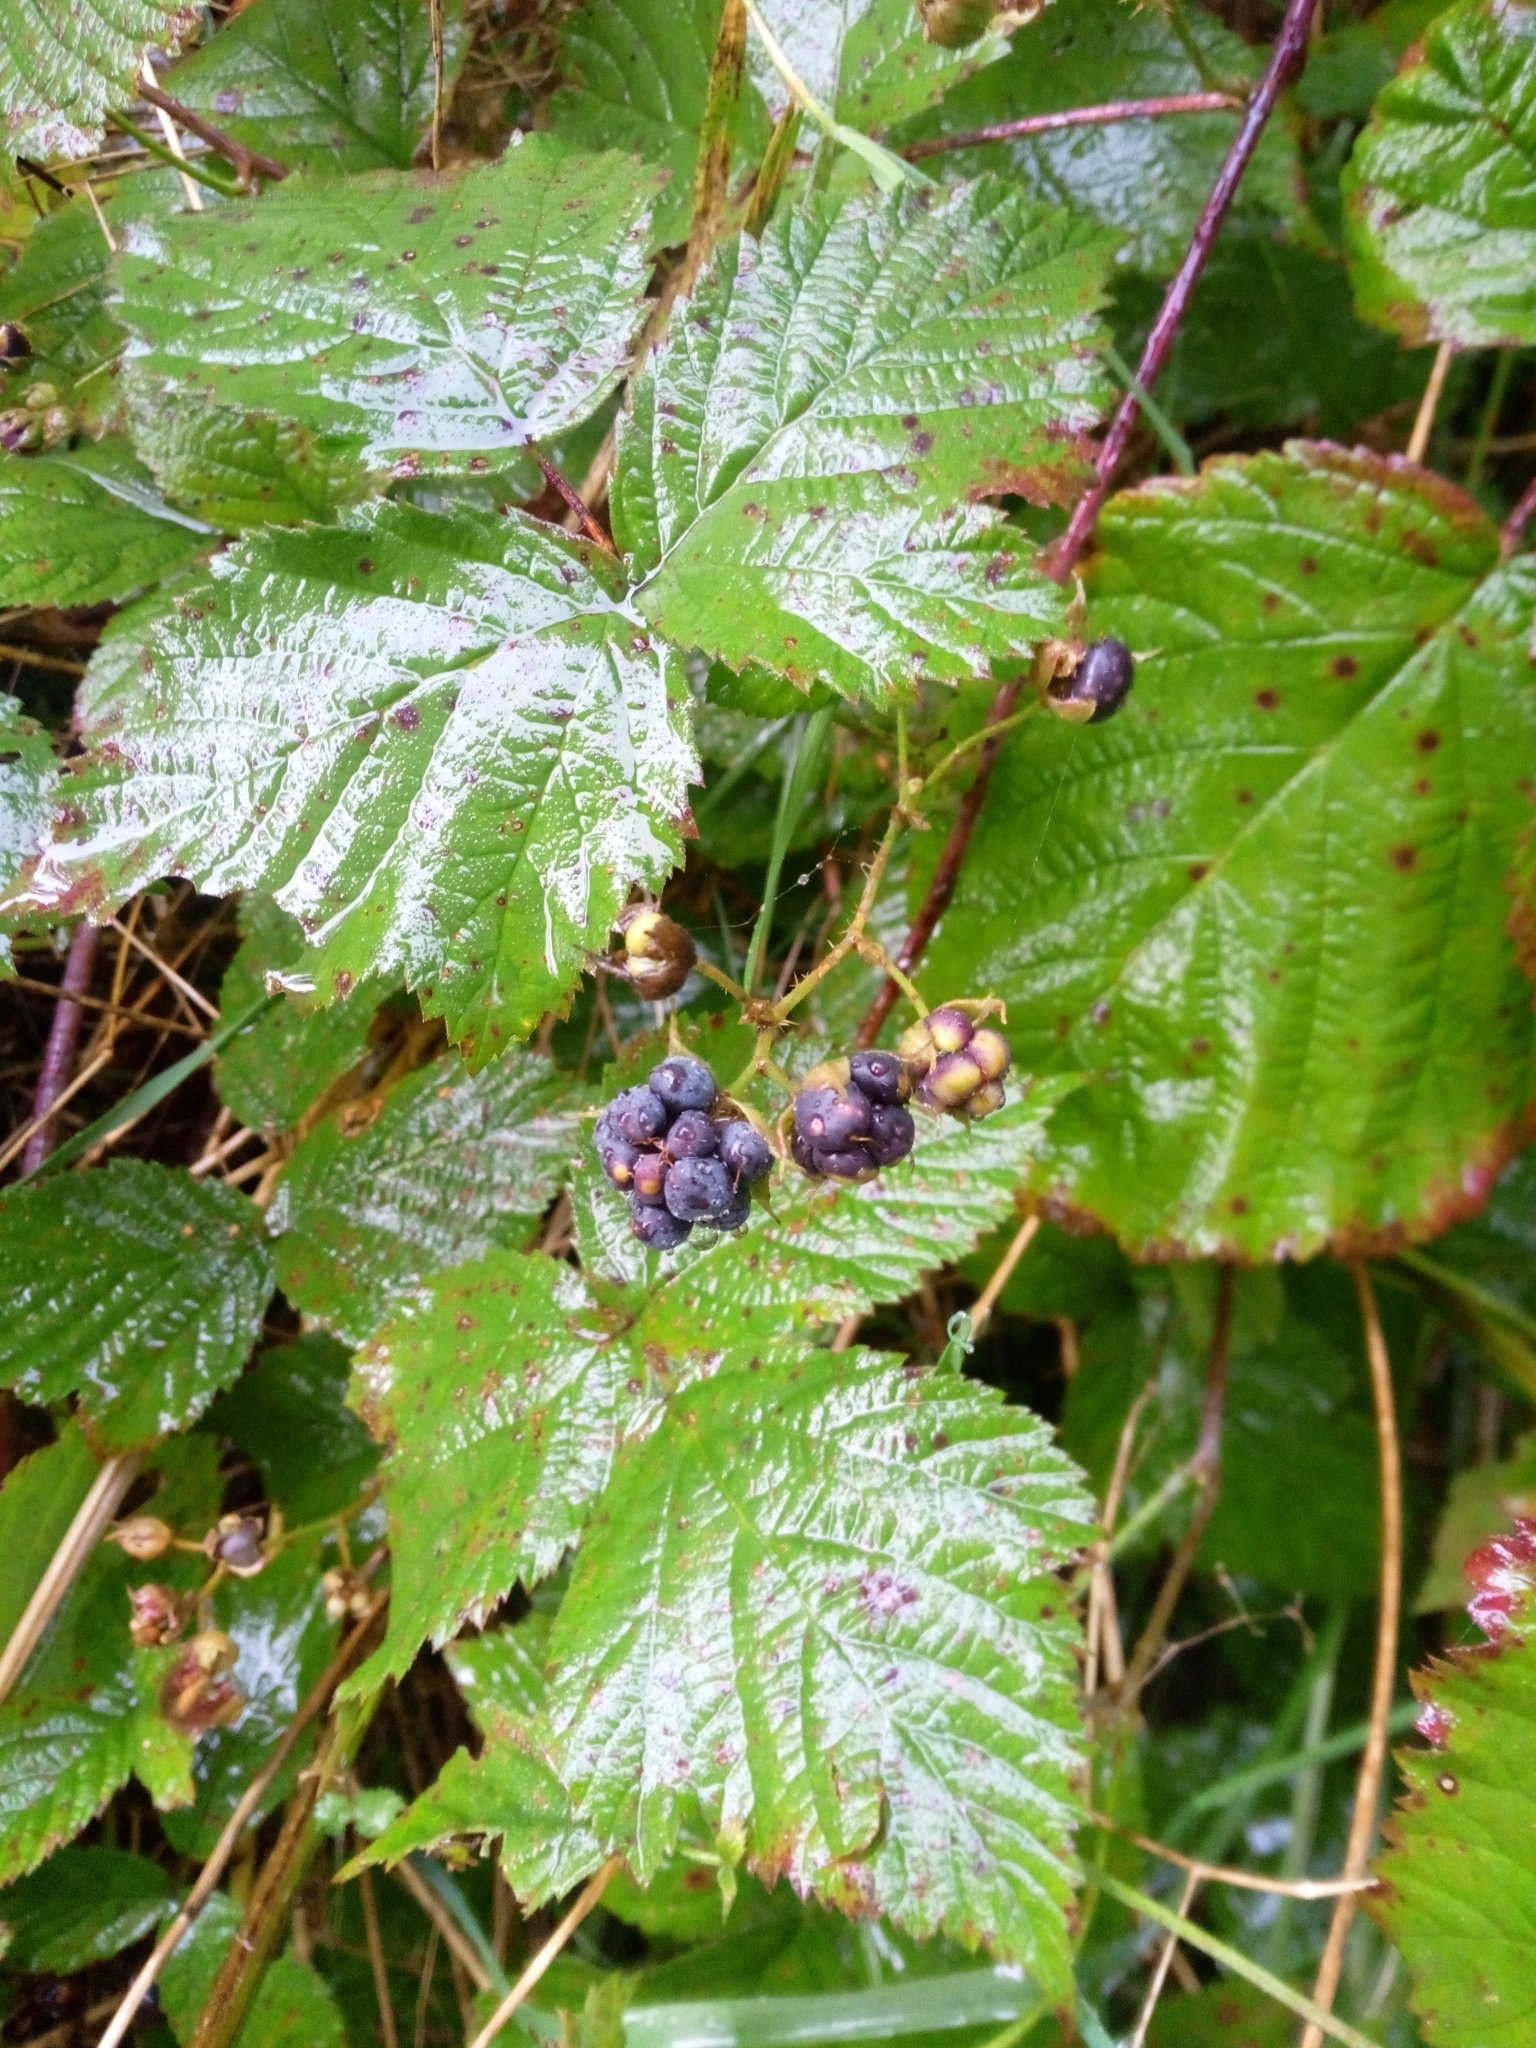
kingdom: Plantae
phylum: Tracheophyta
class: Magnoliopsida
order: Rosales
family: Rosaceae
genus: Rubus
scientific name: Rubus caesius
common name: Dewberry
